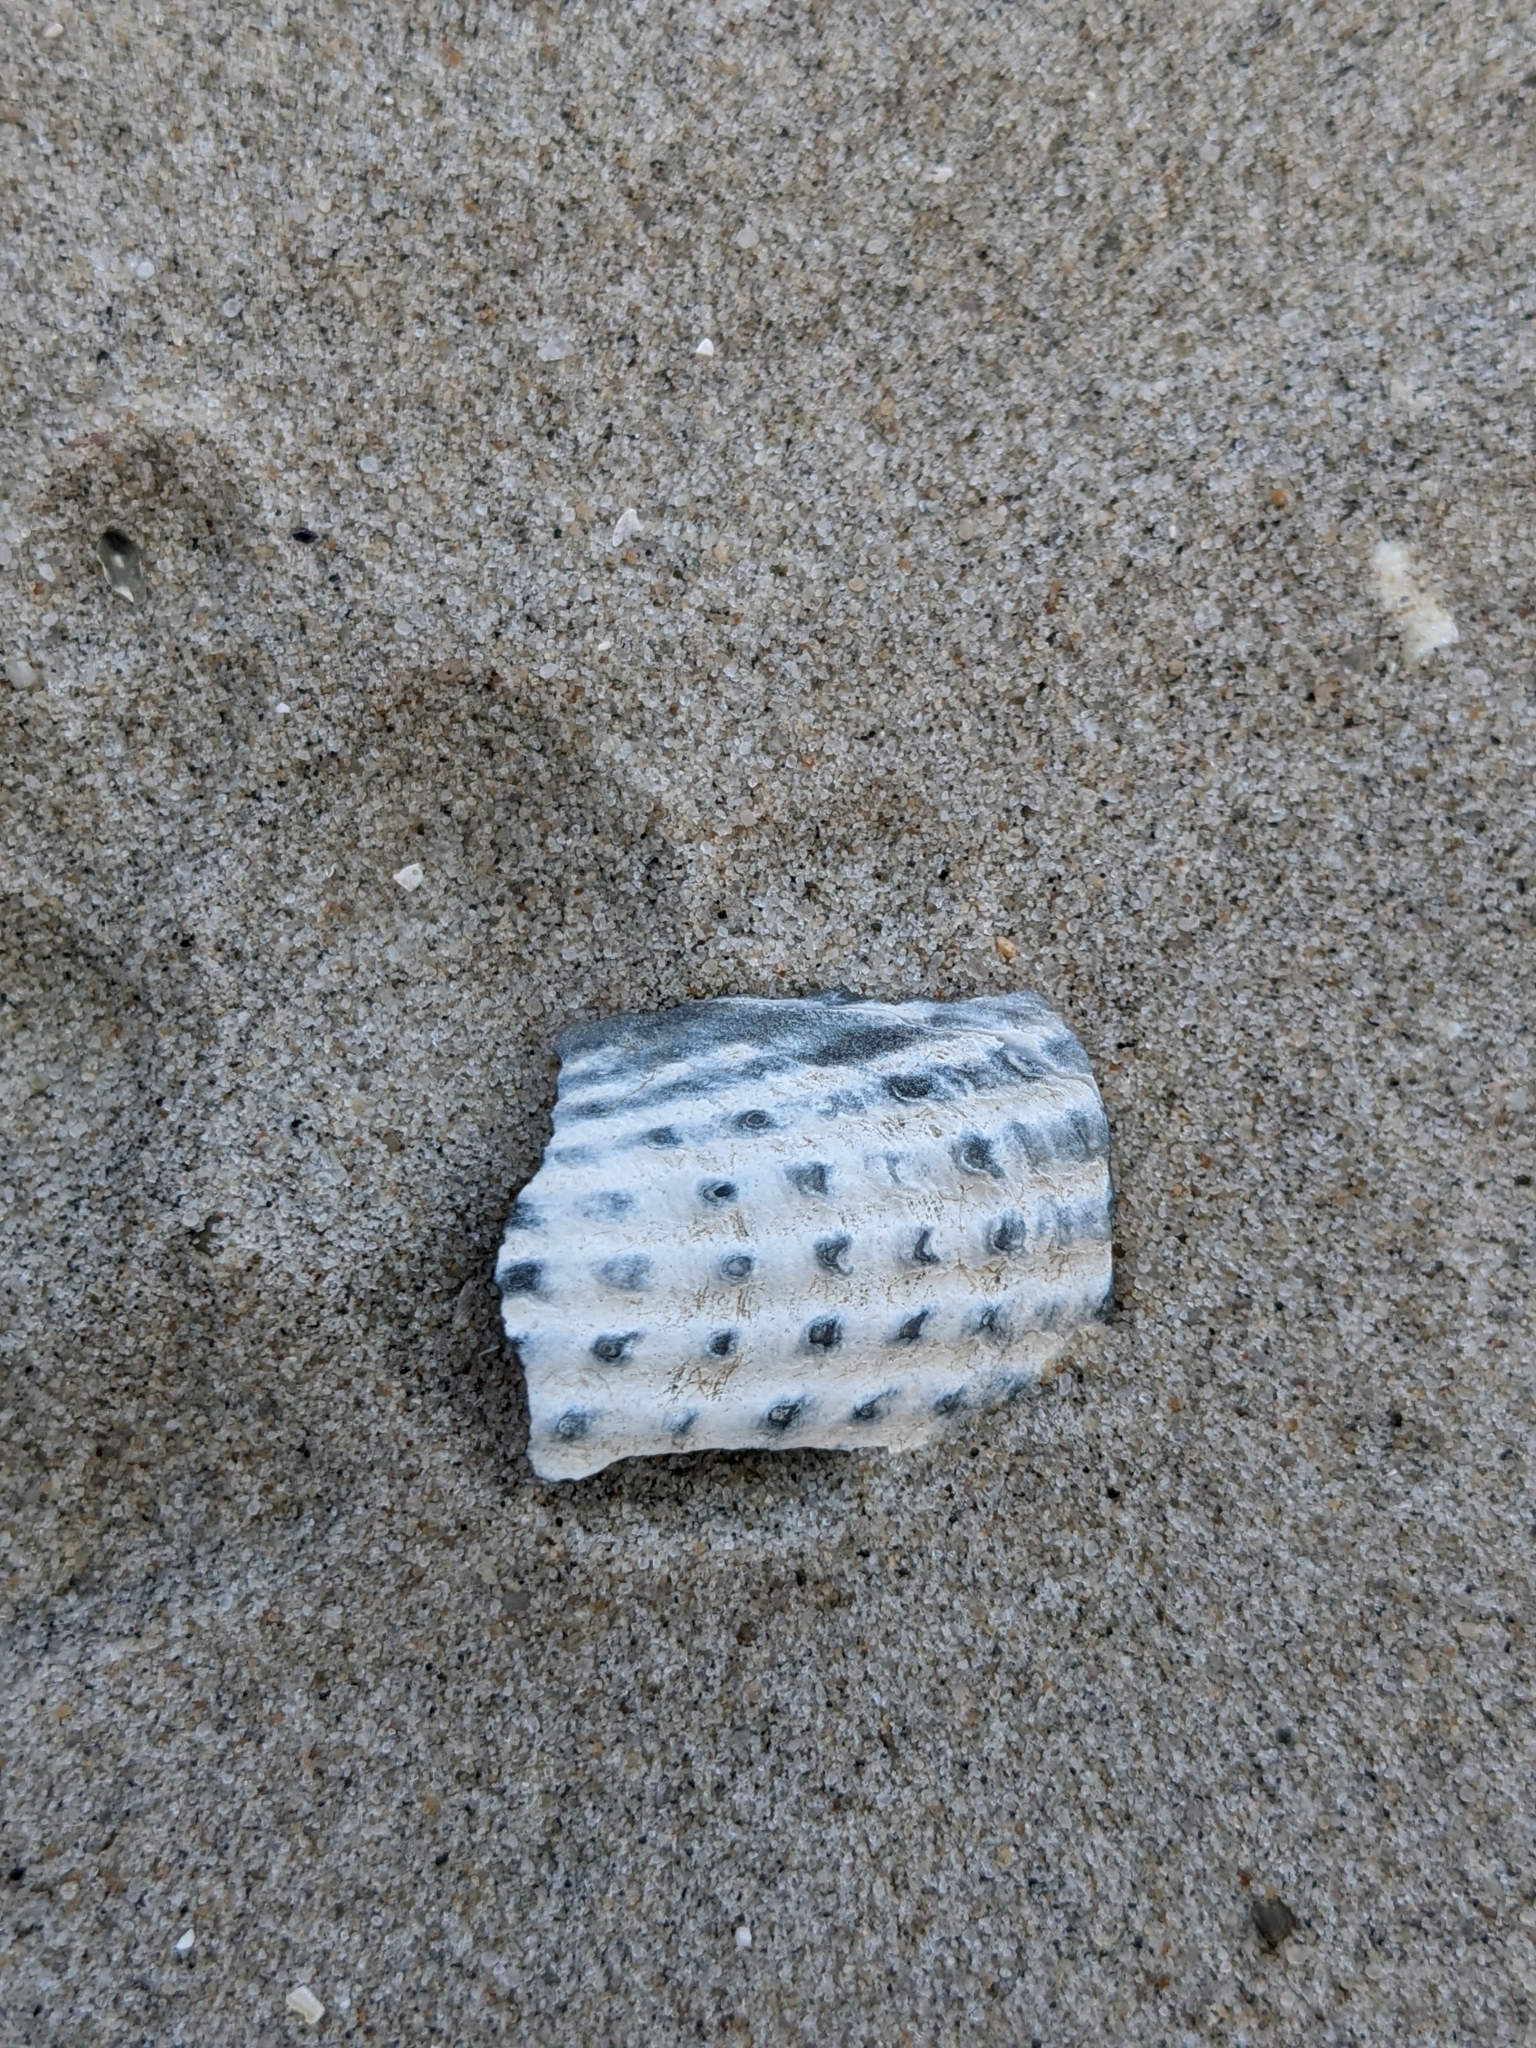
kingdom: Animalia
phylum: Mollusca
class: Bivalvia
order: Myida
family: Pholadidae
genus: Cyrtopleura
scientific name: Cyrtopleura costata
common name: Angel wing
